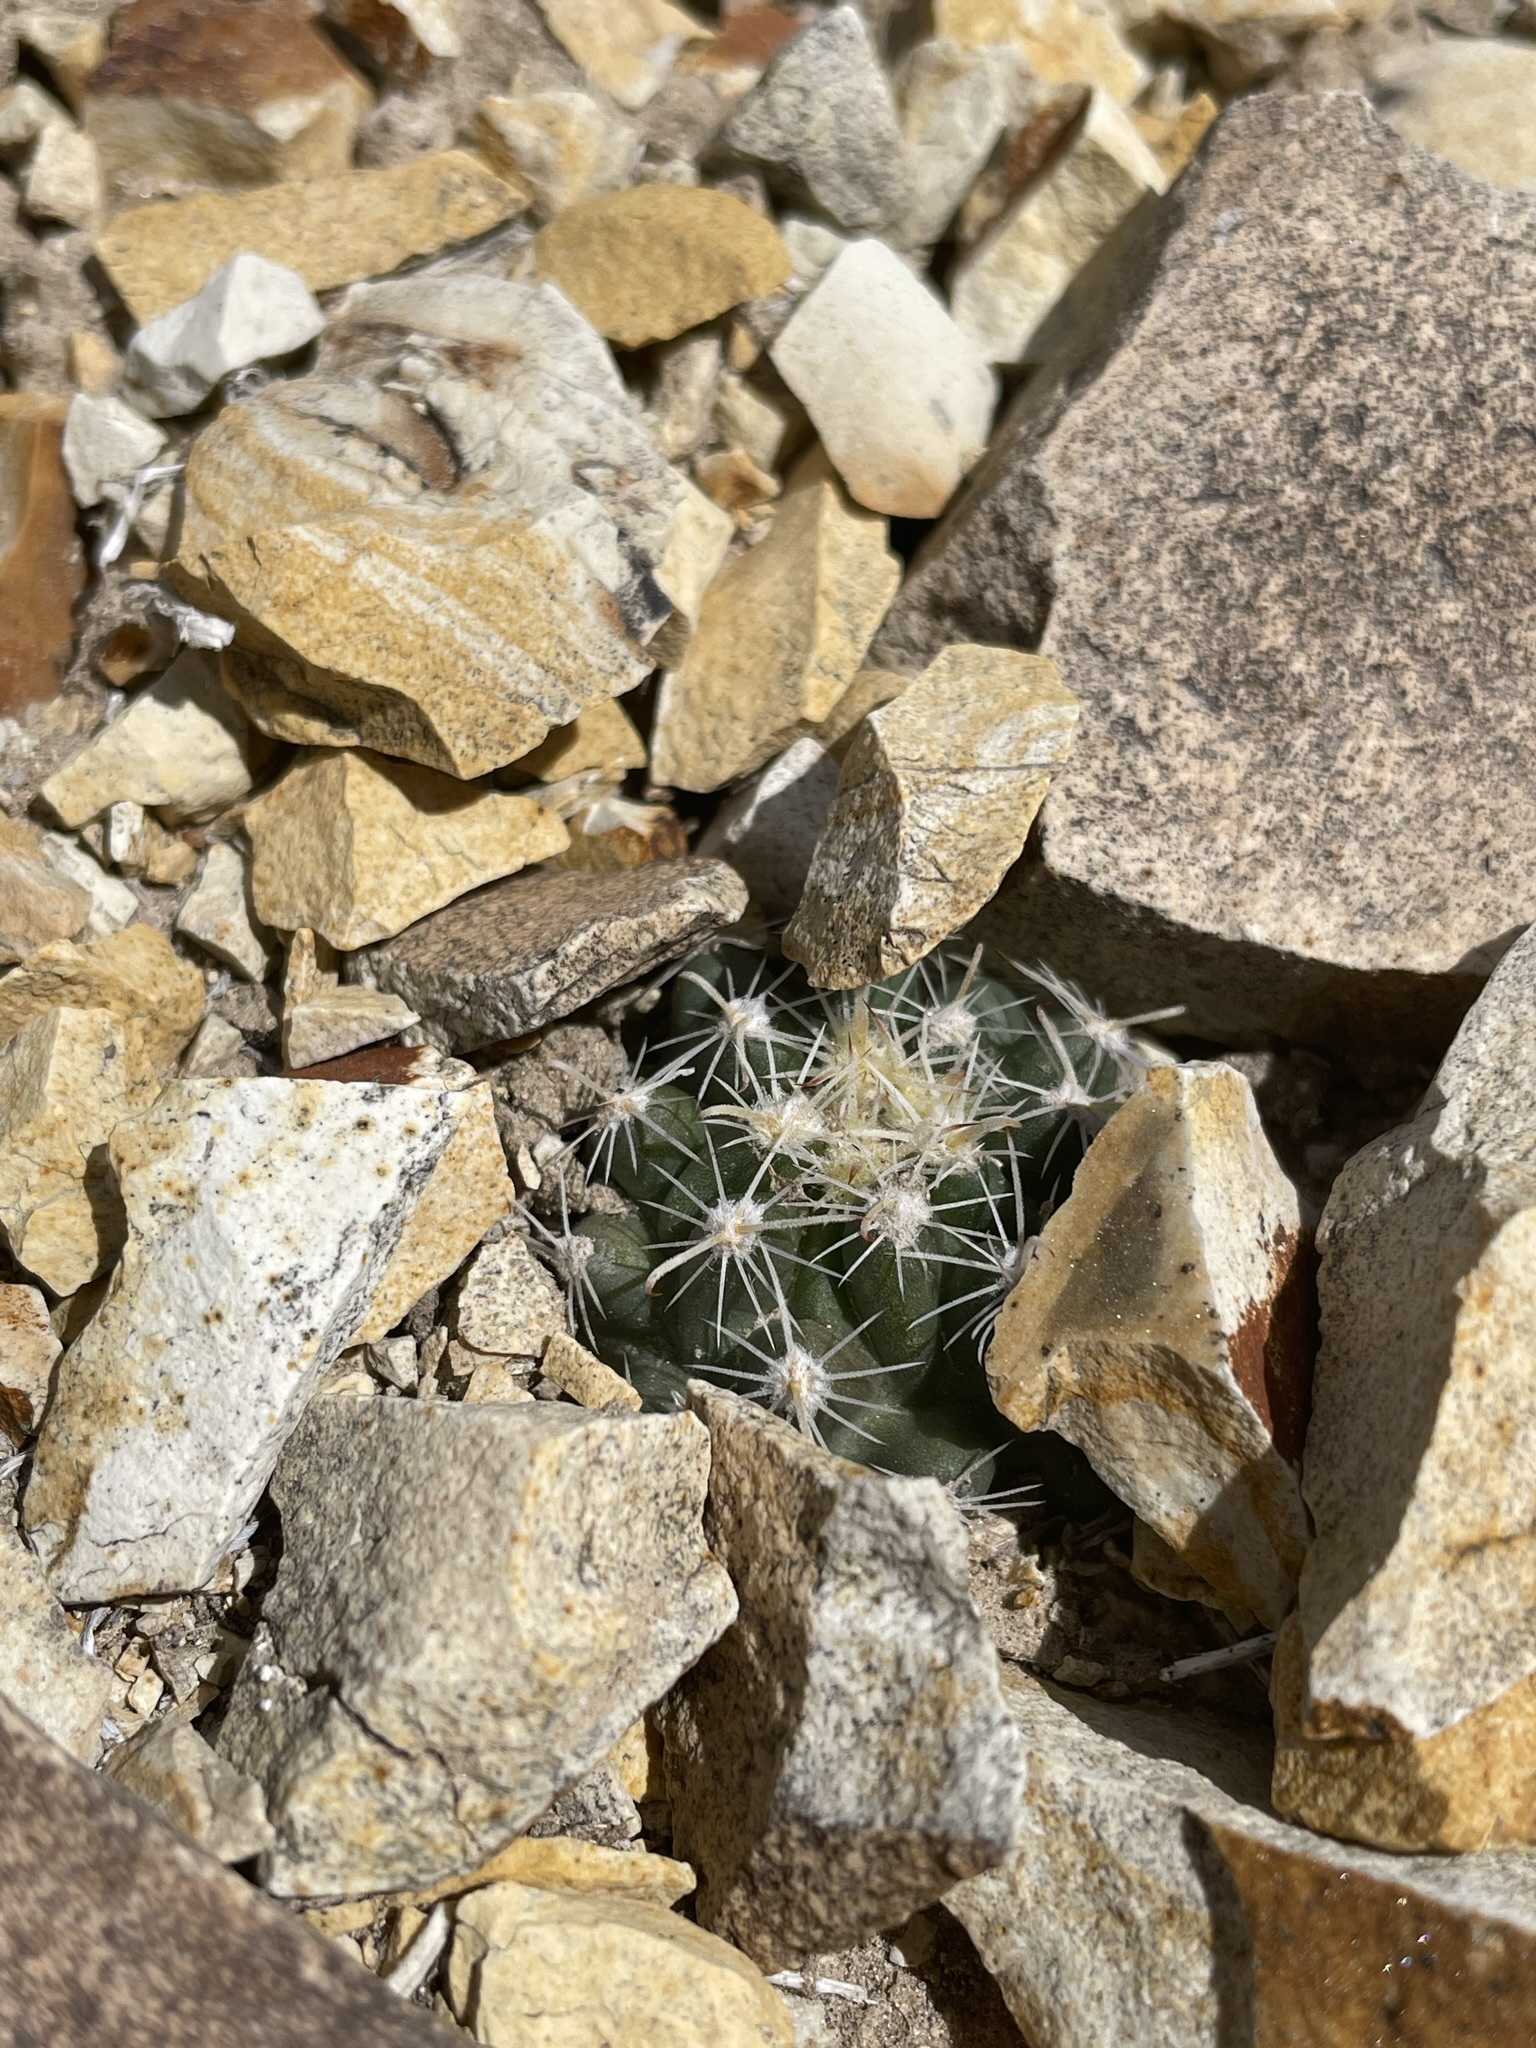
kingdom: Plantae
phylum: Tracheophyta
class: Magnoliopsida
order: Caryophyllales
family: Cactaceae
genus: Sclerocactus
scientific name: Sclerocactus nyensis
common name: Nye county fish-hook cactus
